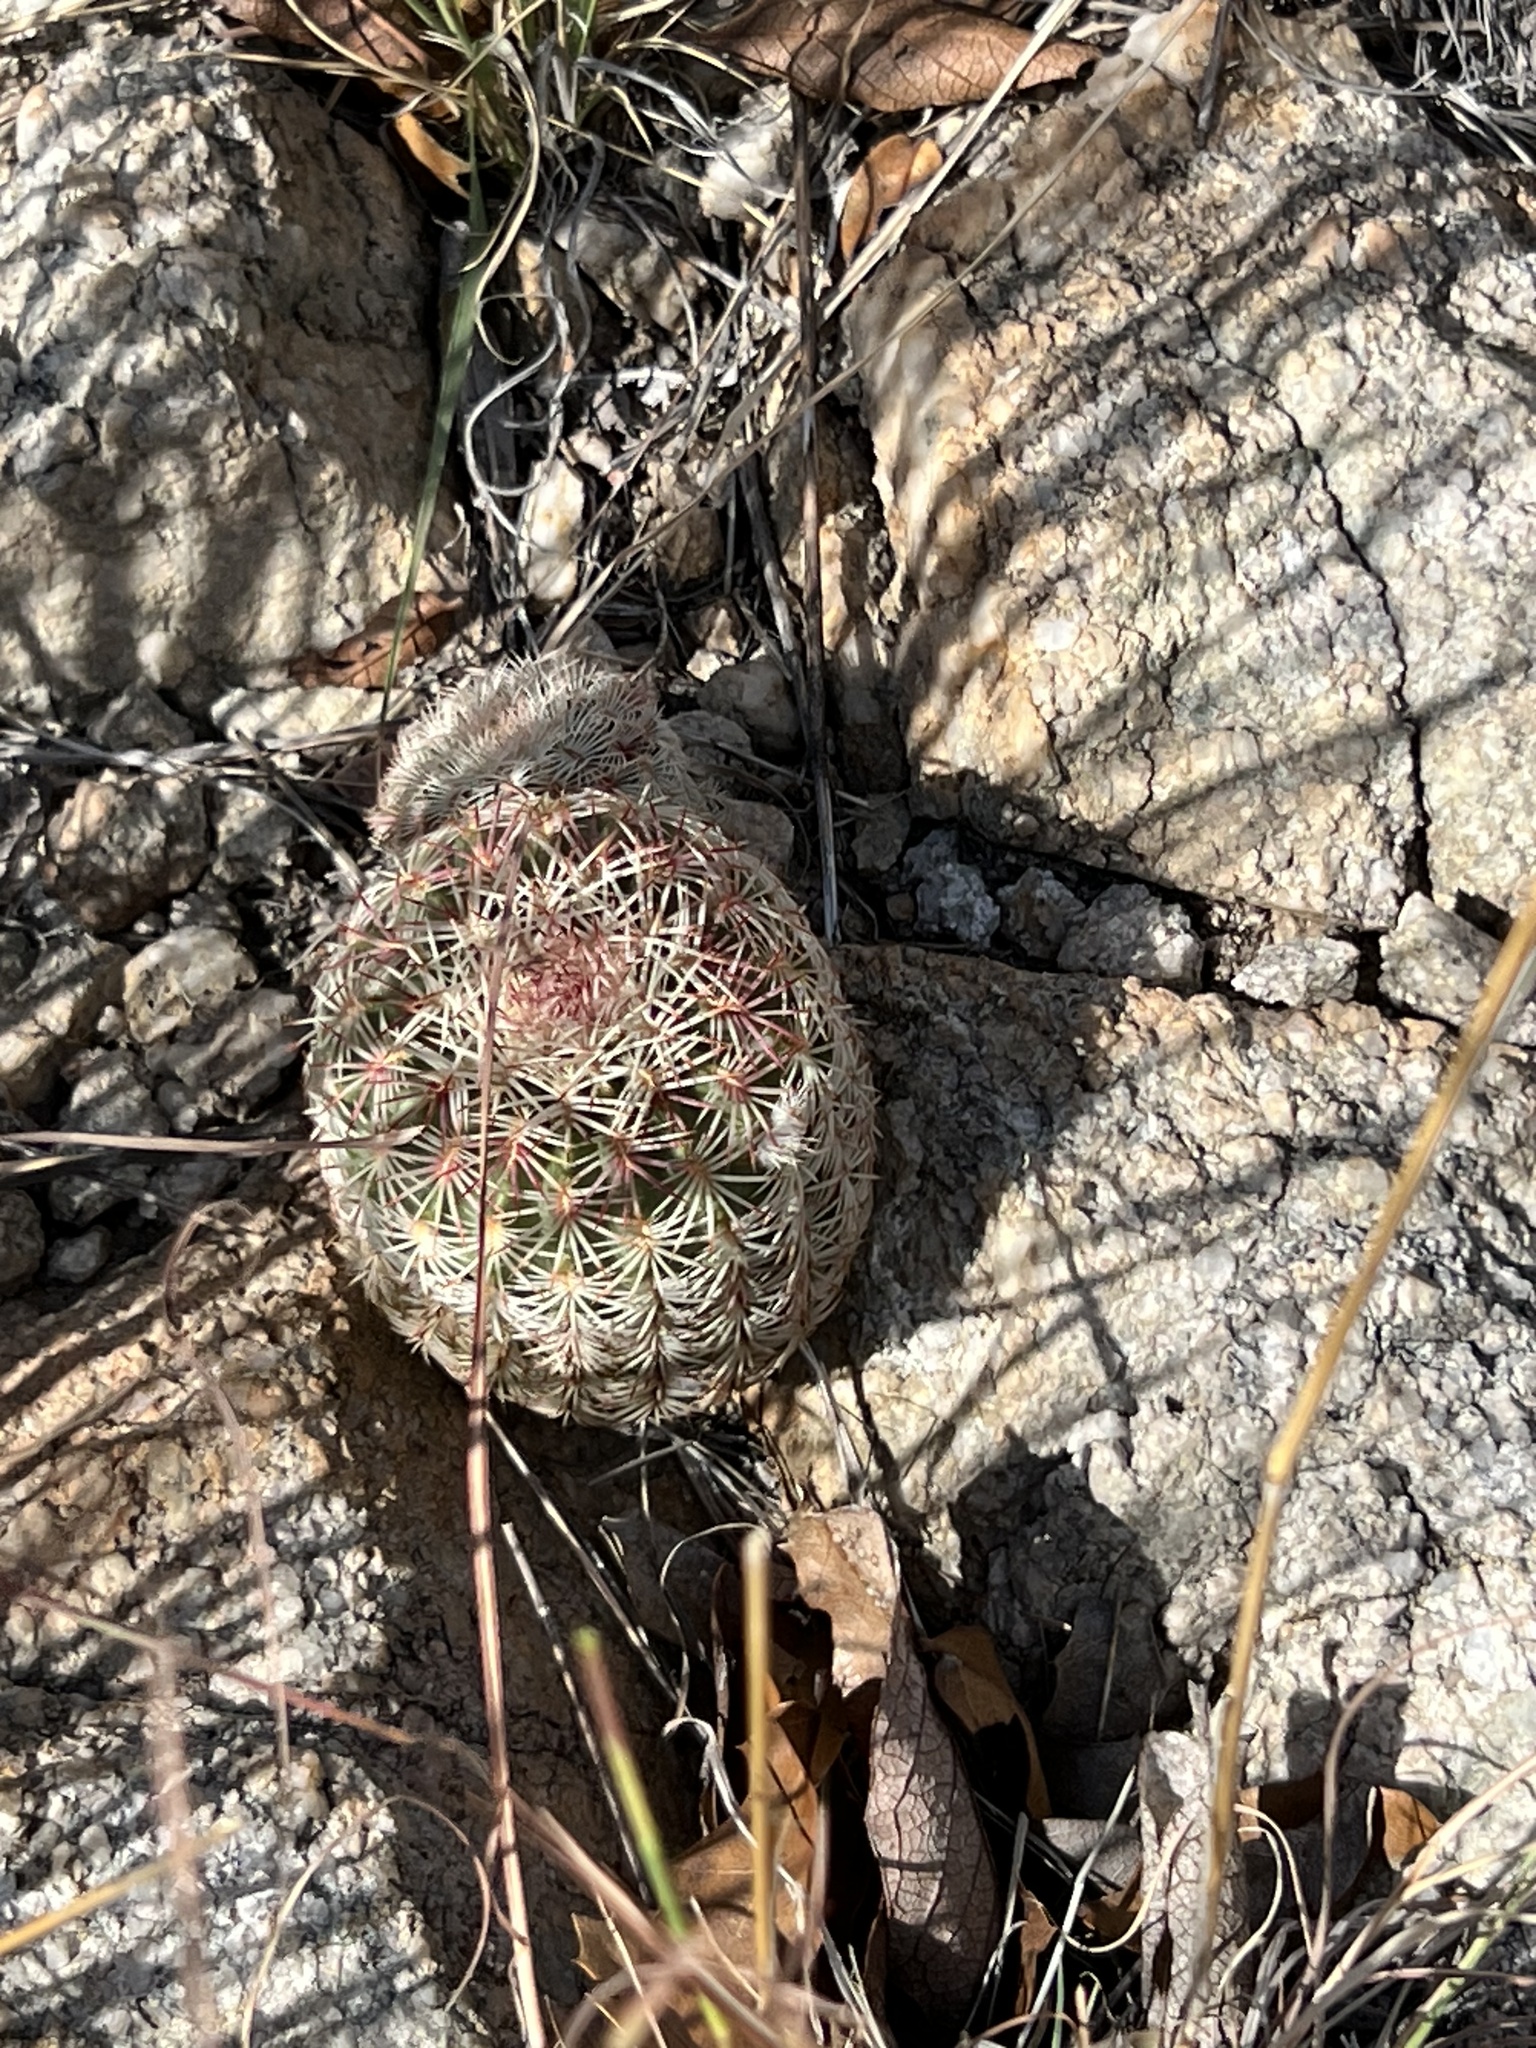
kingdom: Plantae
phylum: Tracheophyta
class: Magnoliopsida
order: Caryophyllales
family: Cactaceae
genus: Echinocereus
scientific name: Echinocereus rigidissimus
